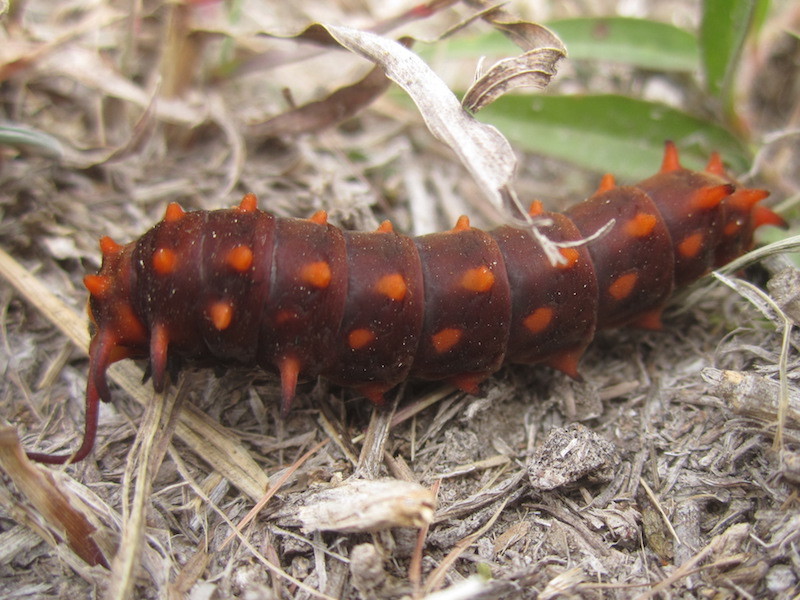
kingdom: Animalia
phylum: Arthropoda
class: Insecta
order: Lepidoptera
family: Papilionidae
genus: Battus
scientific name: Battus philenor
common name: Pipevine swallowtail
